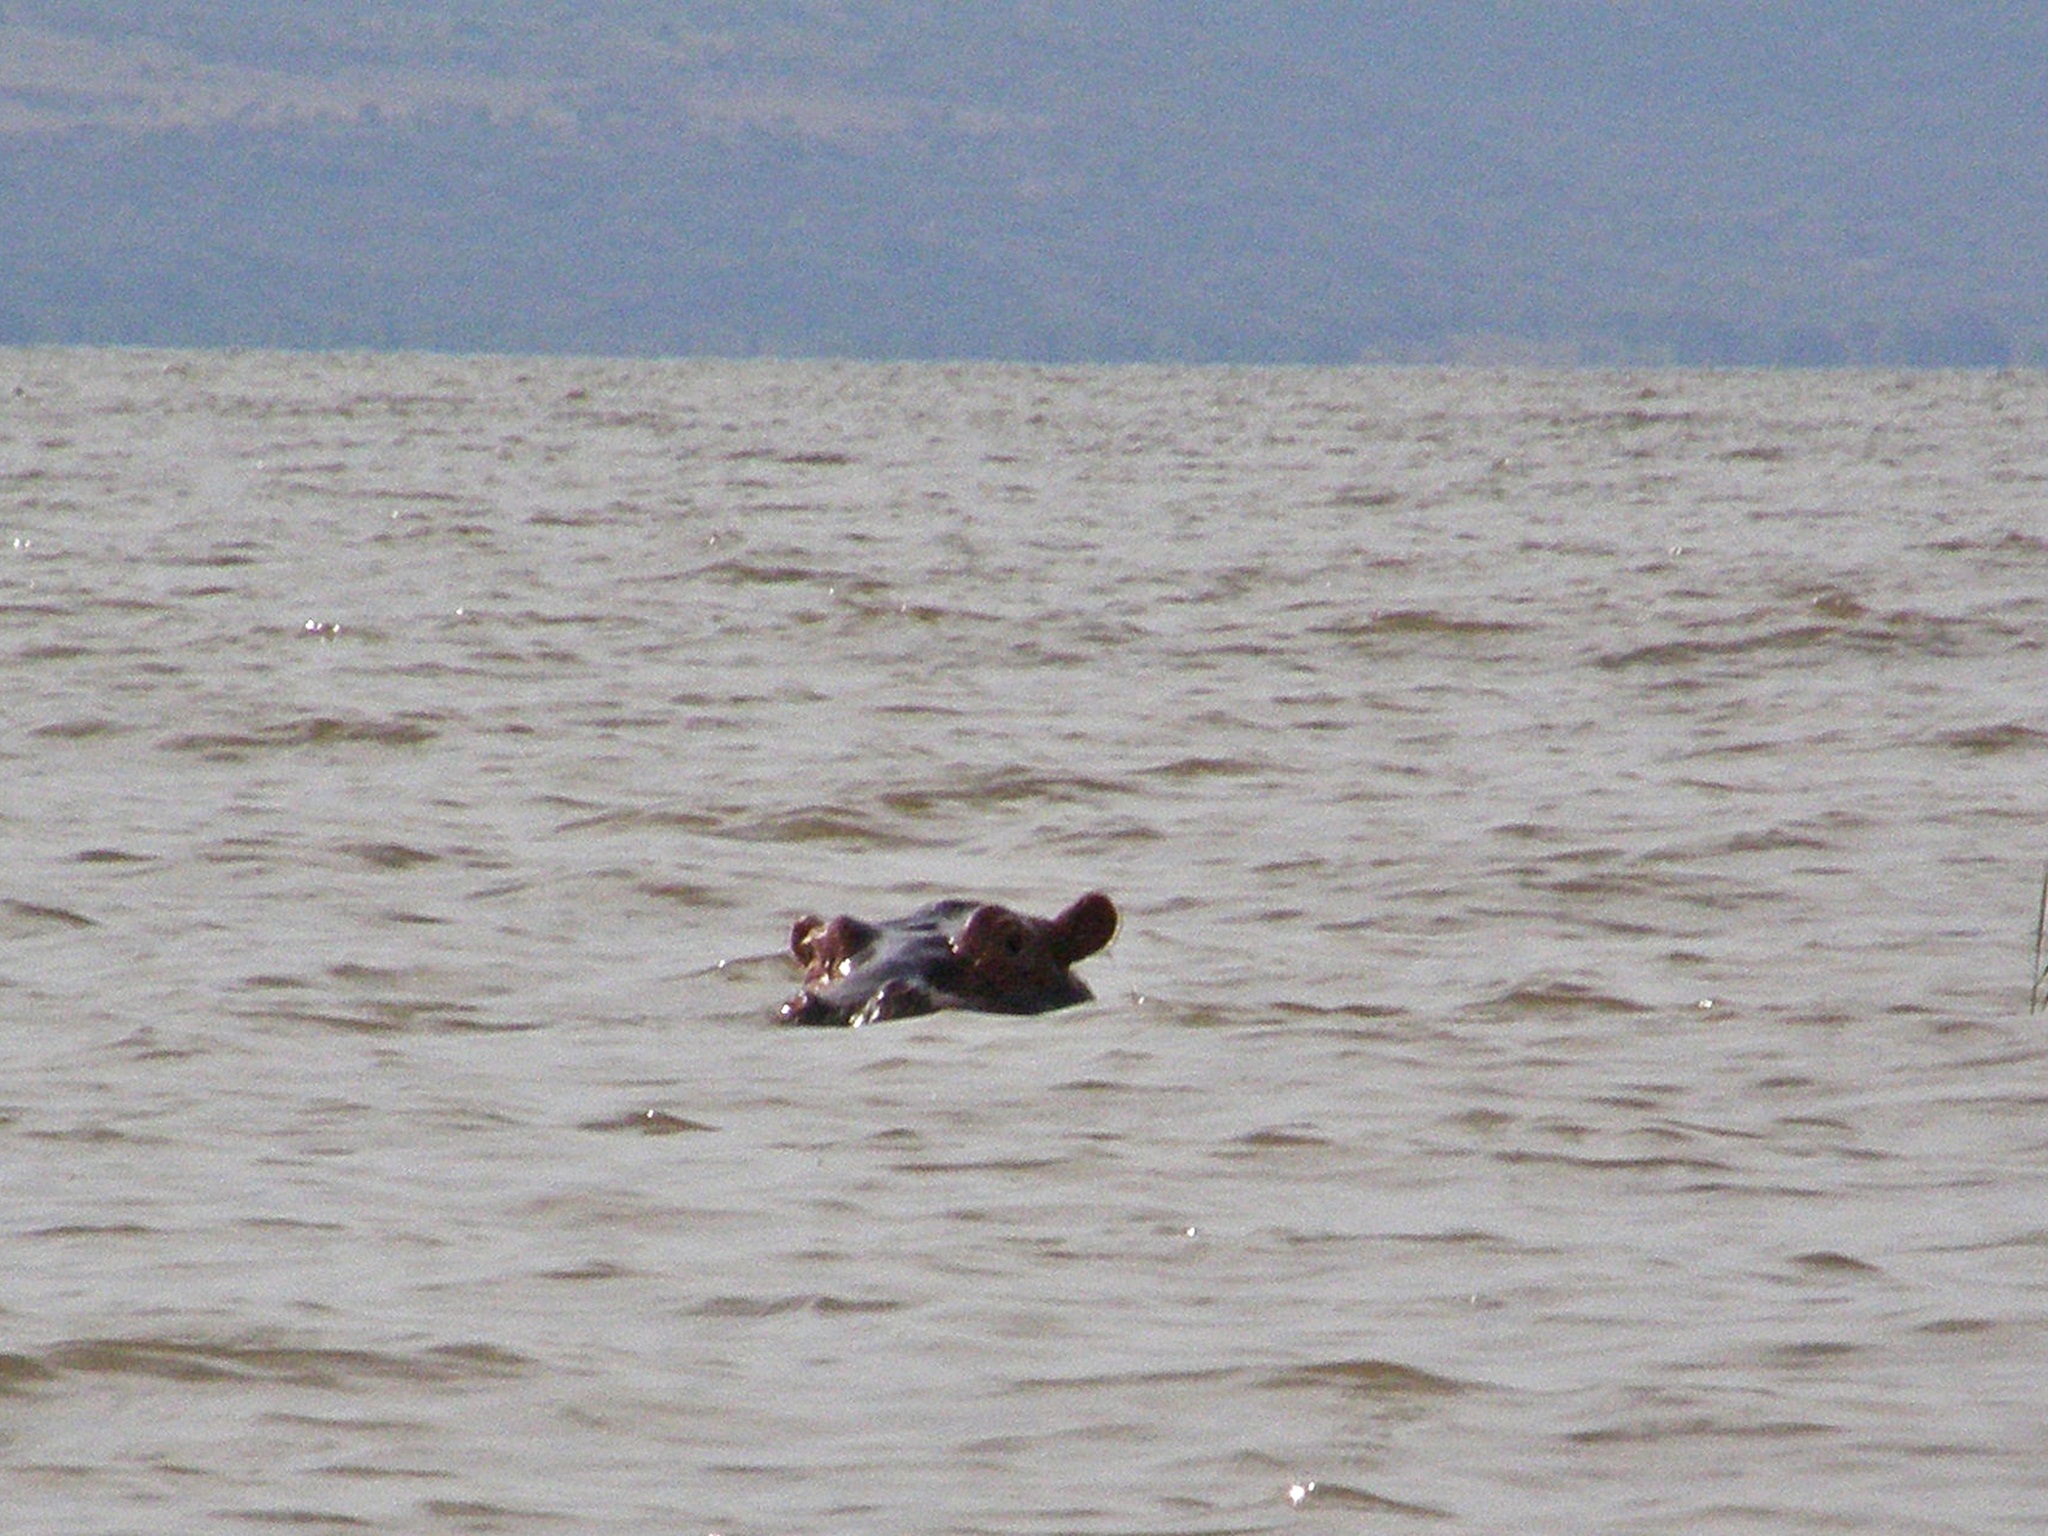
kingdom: Animalia
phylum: Chordata
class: Mammalia
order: Artiodactyla
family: Hippopotamidae
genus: Hippopotamus
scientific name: Hippopotamus amphibius
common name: Common hippopotamus
